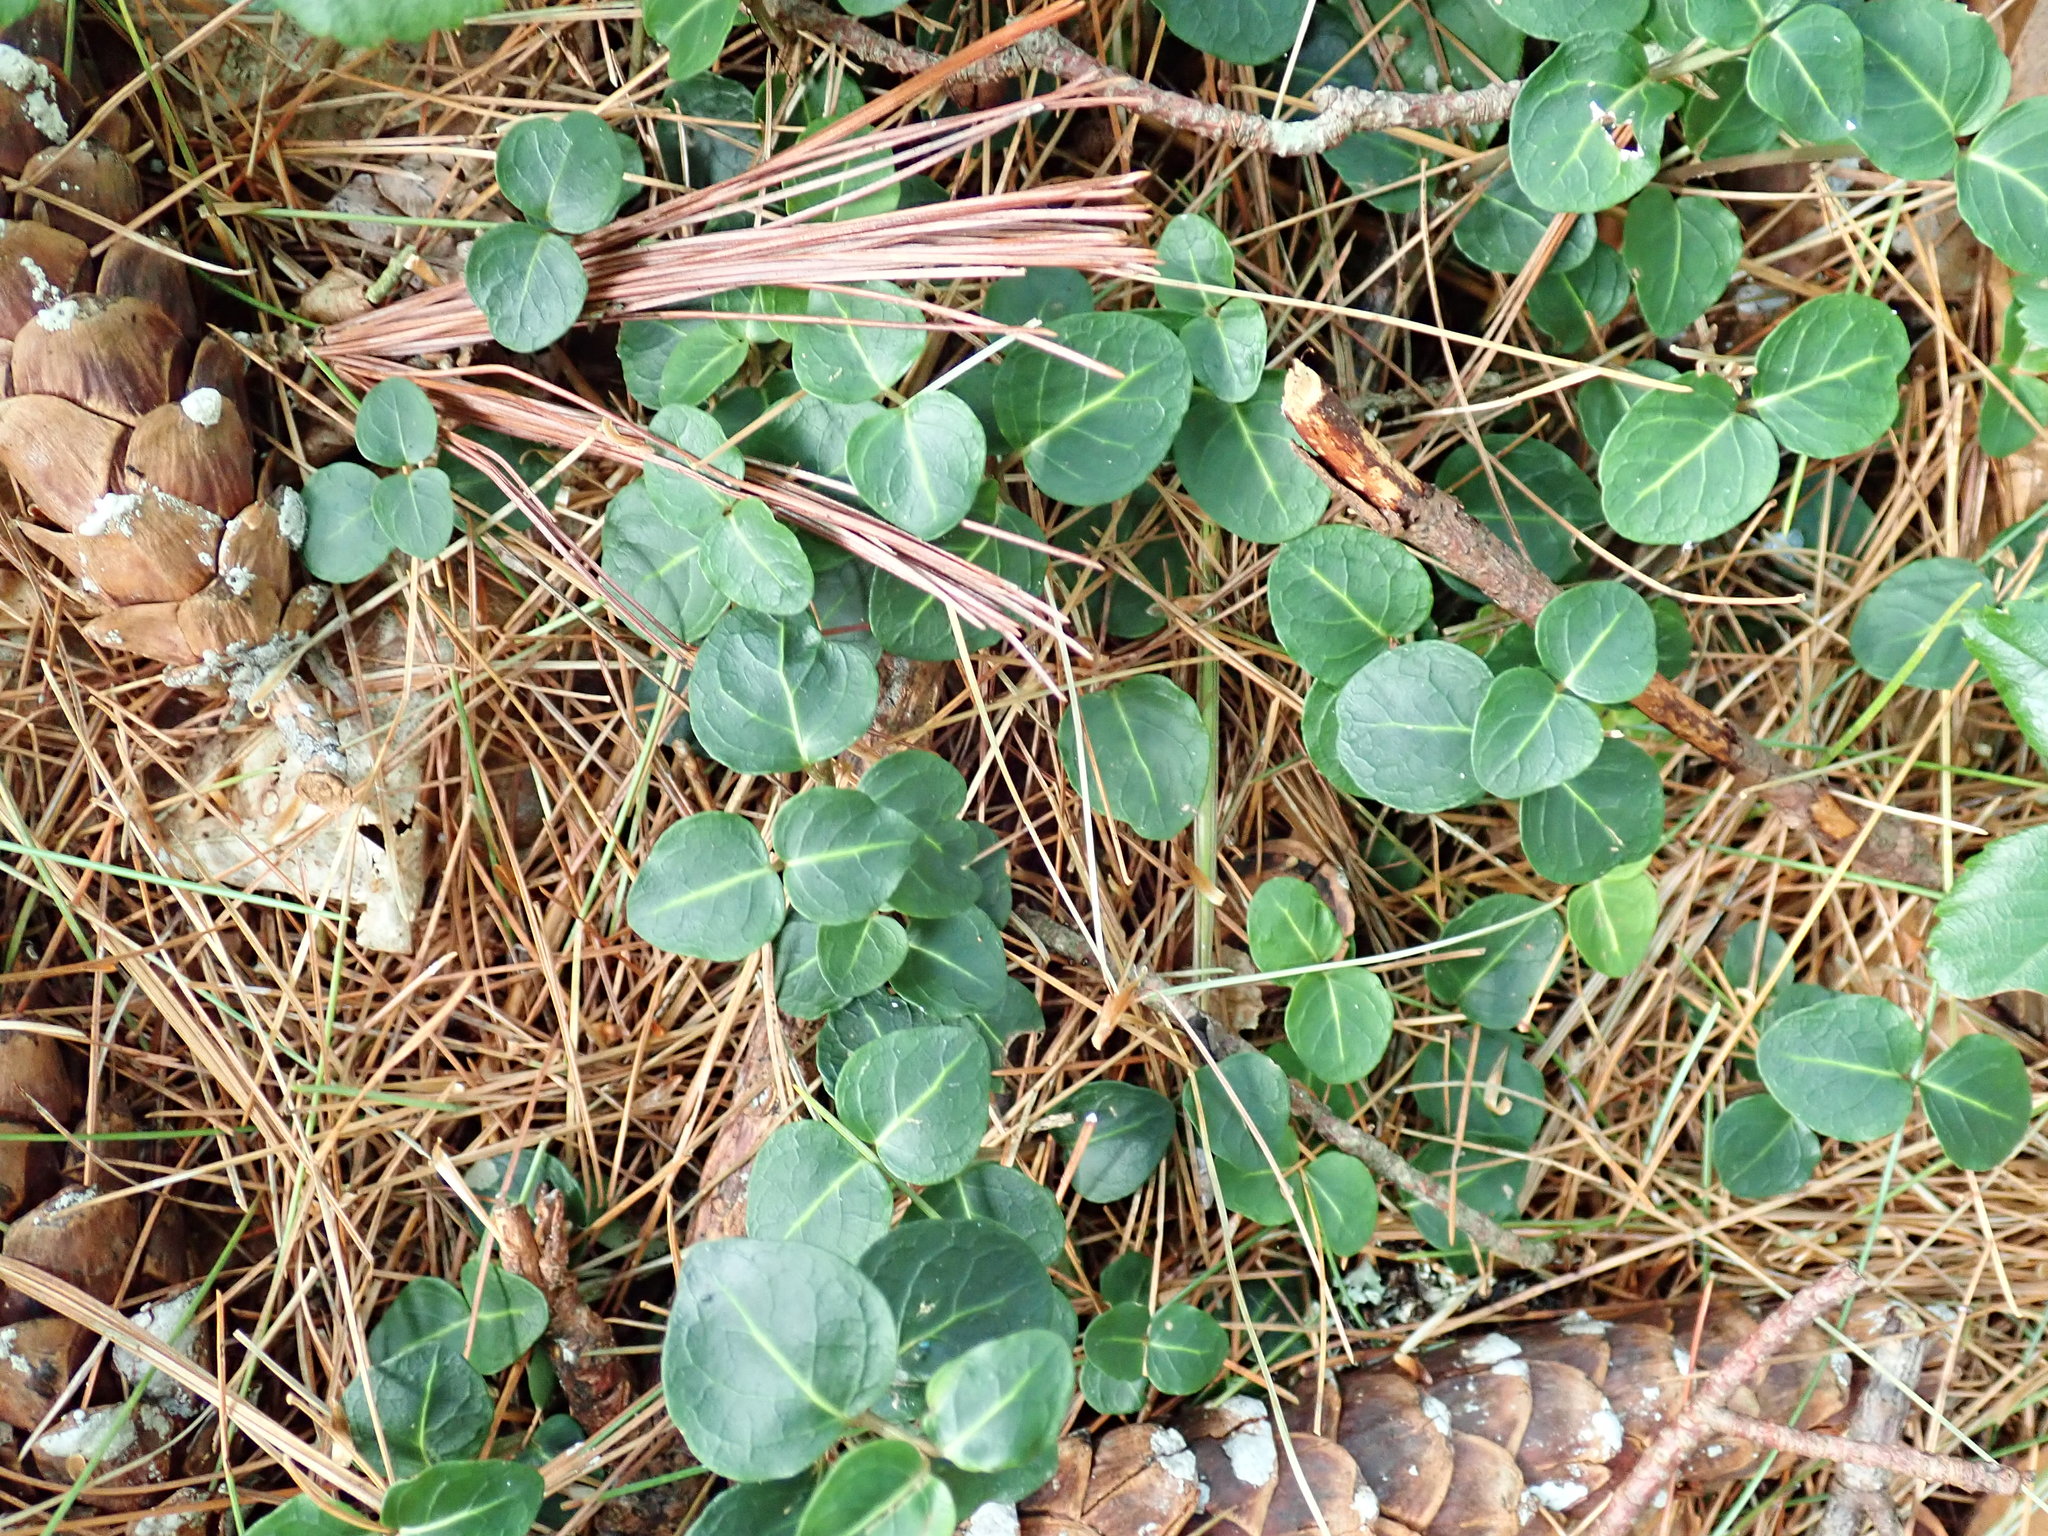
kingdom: Plantae
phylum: Tracheophyta
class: Magnoliopsida
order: Gentianales
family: Rubiaceae
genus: Mitchella
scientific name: Mitchella repens
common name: Partridge-berry
